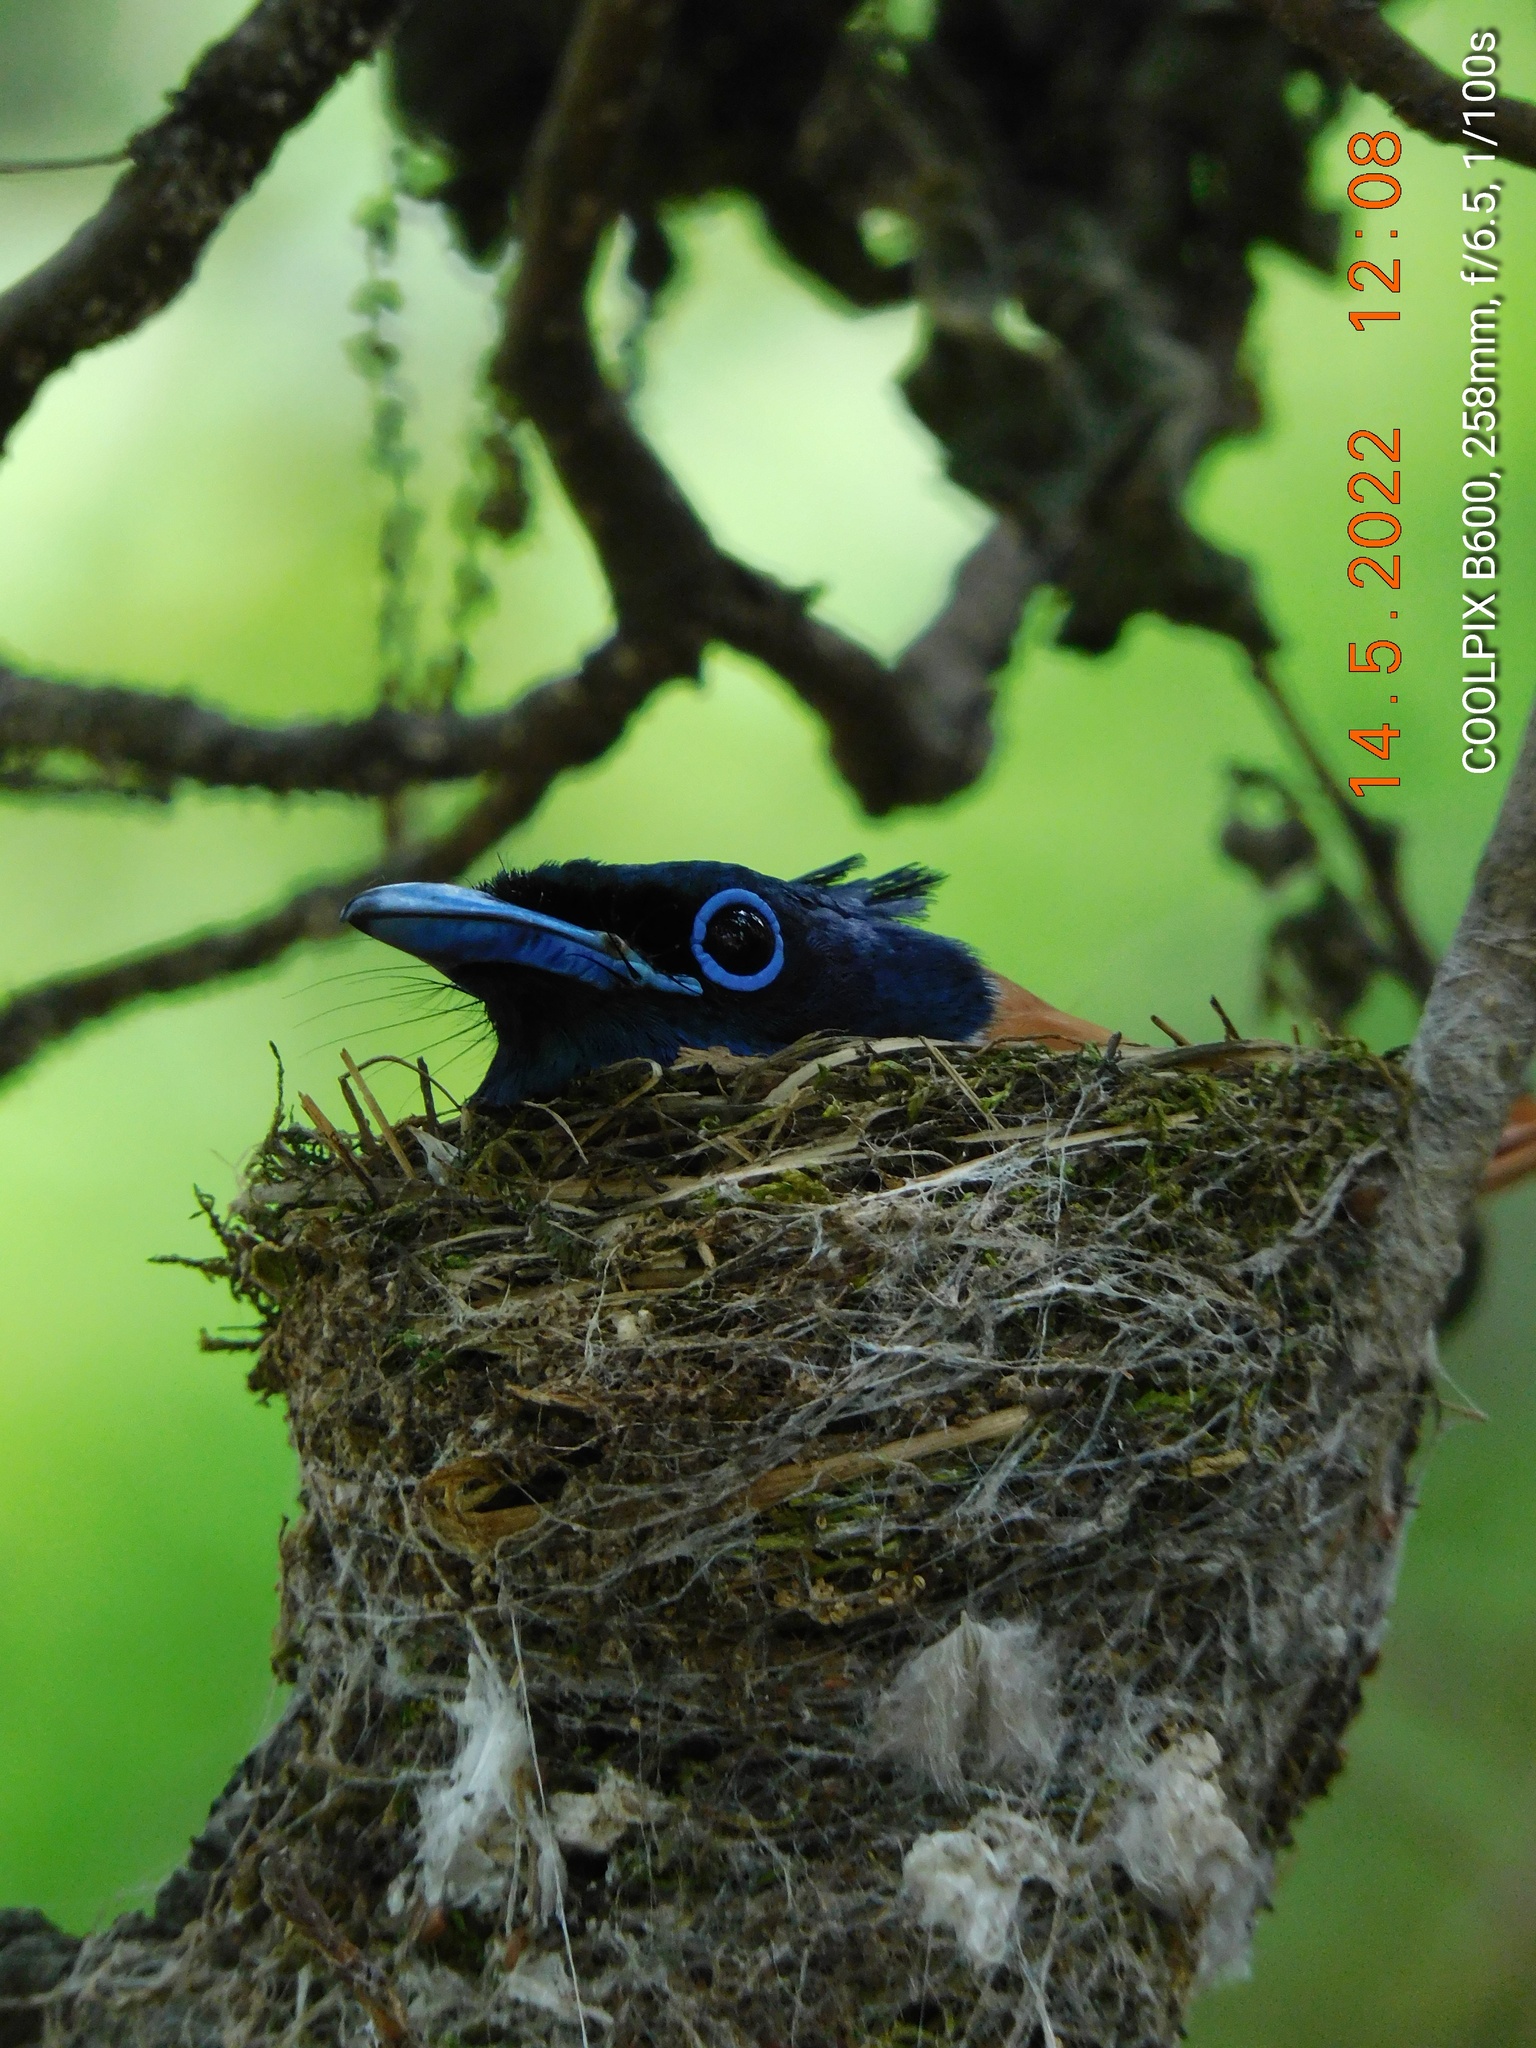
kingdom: Animalia
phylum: Chordata
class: Aves
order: Passeriformes
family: Monarchidae
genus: Terpsiphone
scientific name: Terpsiphone paradisi
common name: Indian paradise flycatcher
